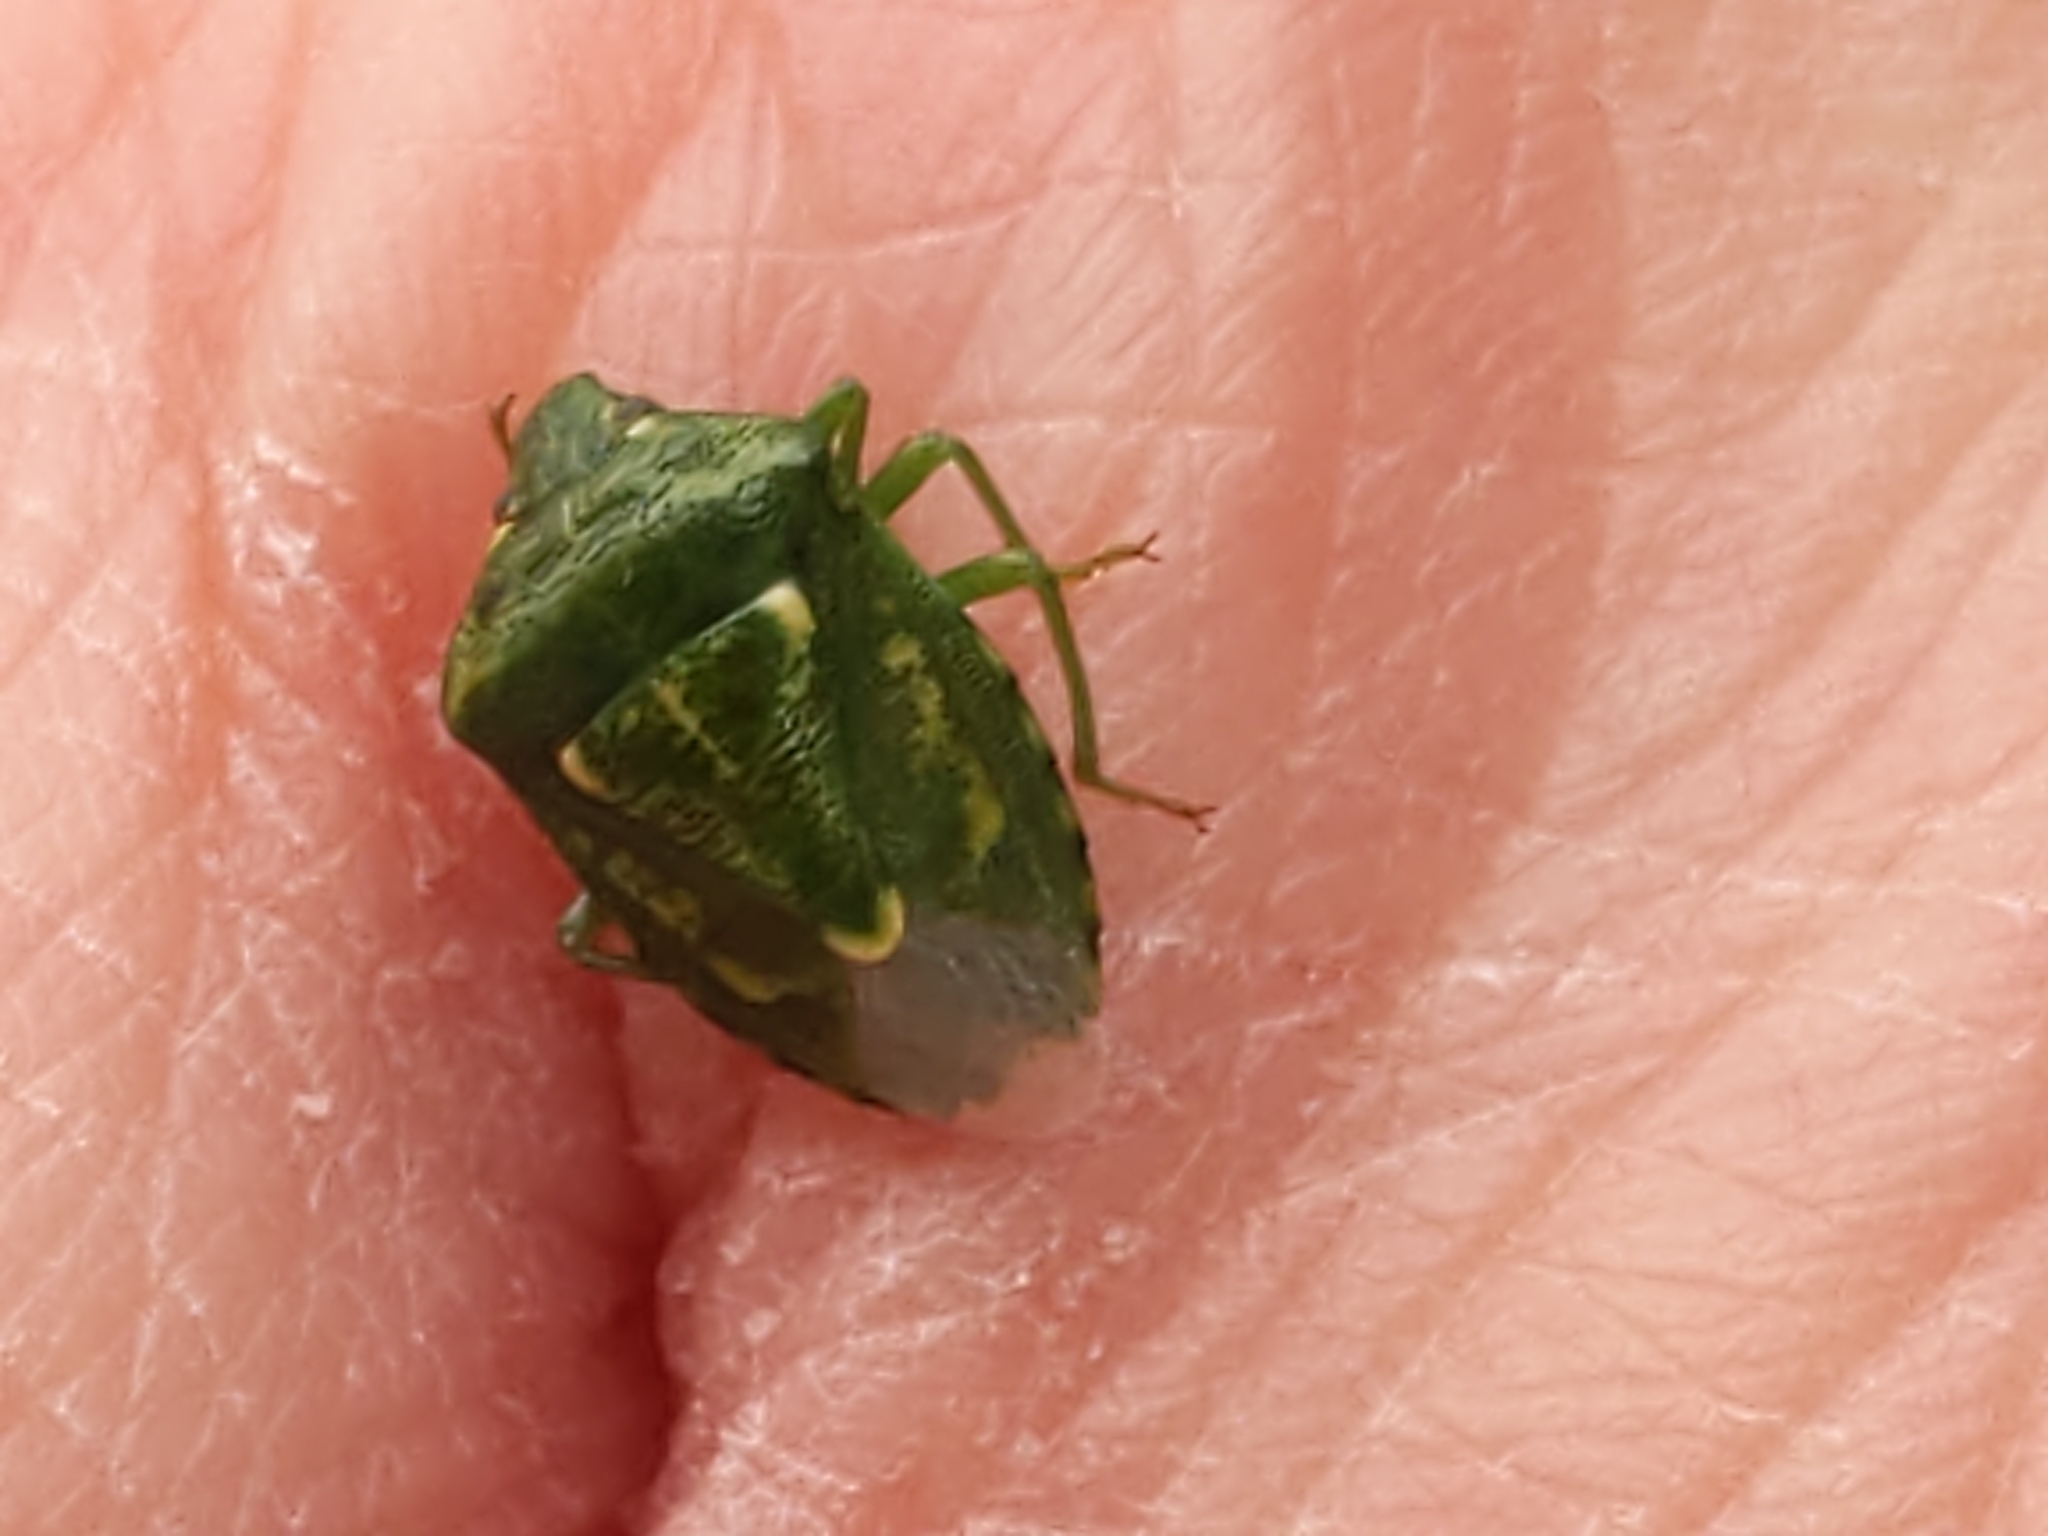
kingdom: Animalia
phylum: Arthropoda
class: Insecta
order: Hemiptera
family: Pentatomidae
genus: Banasa
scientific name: Banasa euchlora
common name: Cedar berry bug
